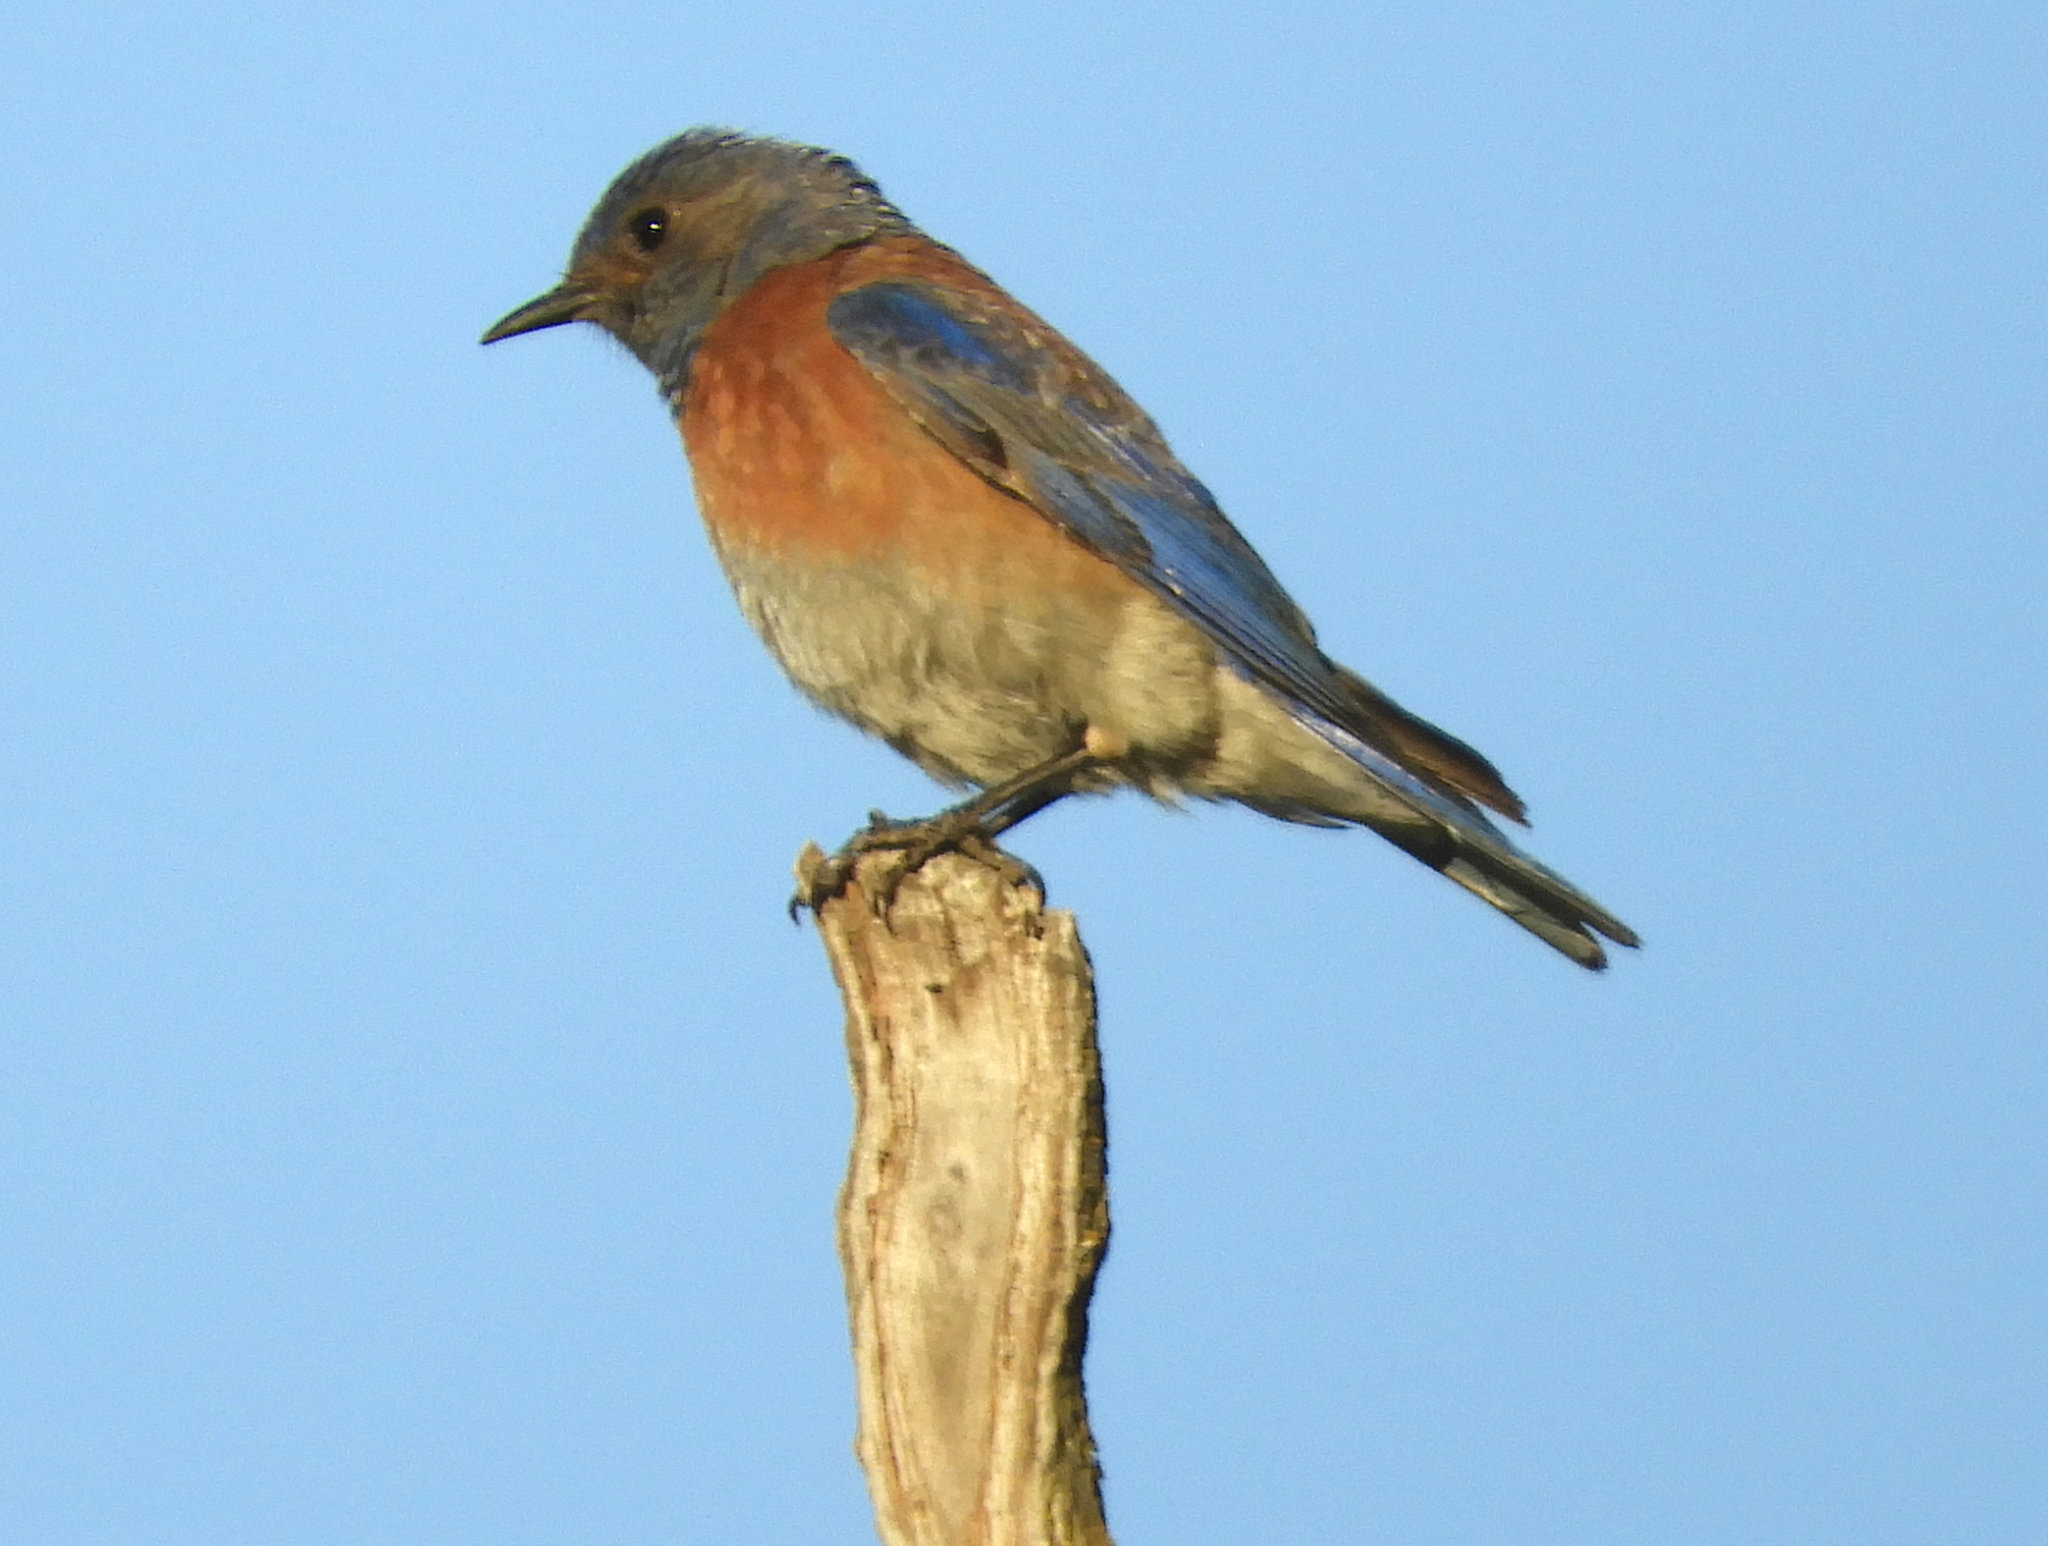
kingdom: Animalia
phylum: Chordata
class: Aves
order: Passeriformes
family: Turdidae
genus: Sialia
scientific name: Sialia mexicana
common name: Western bluebird
